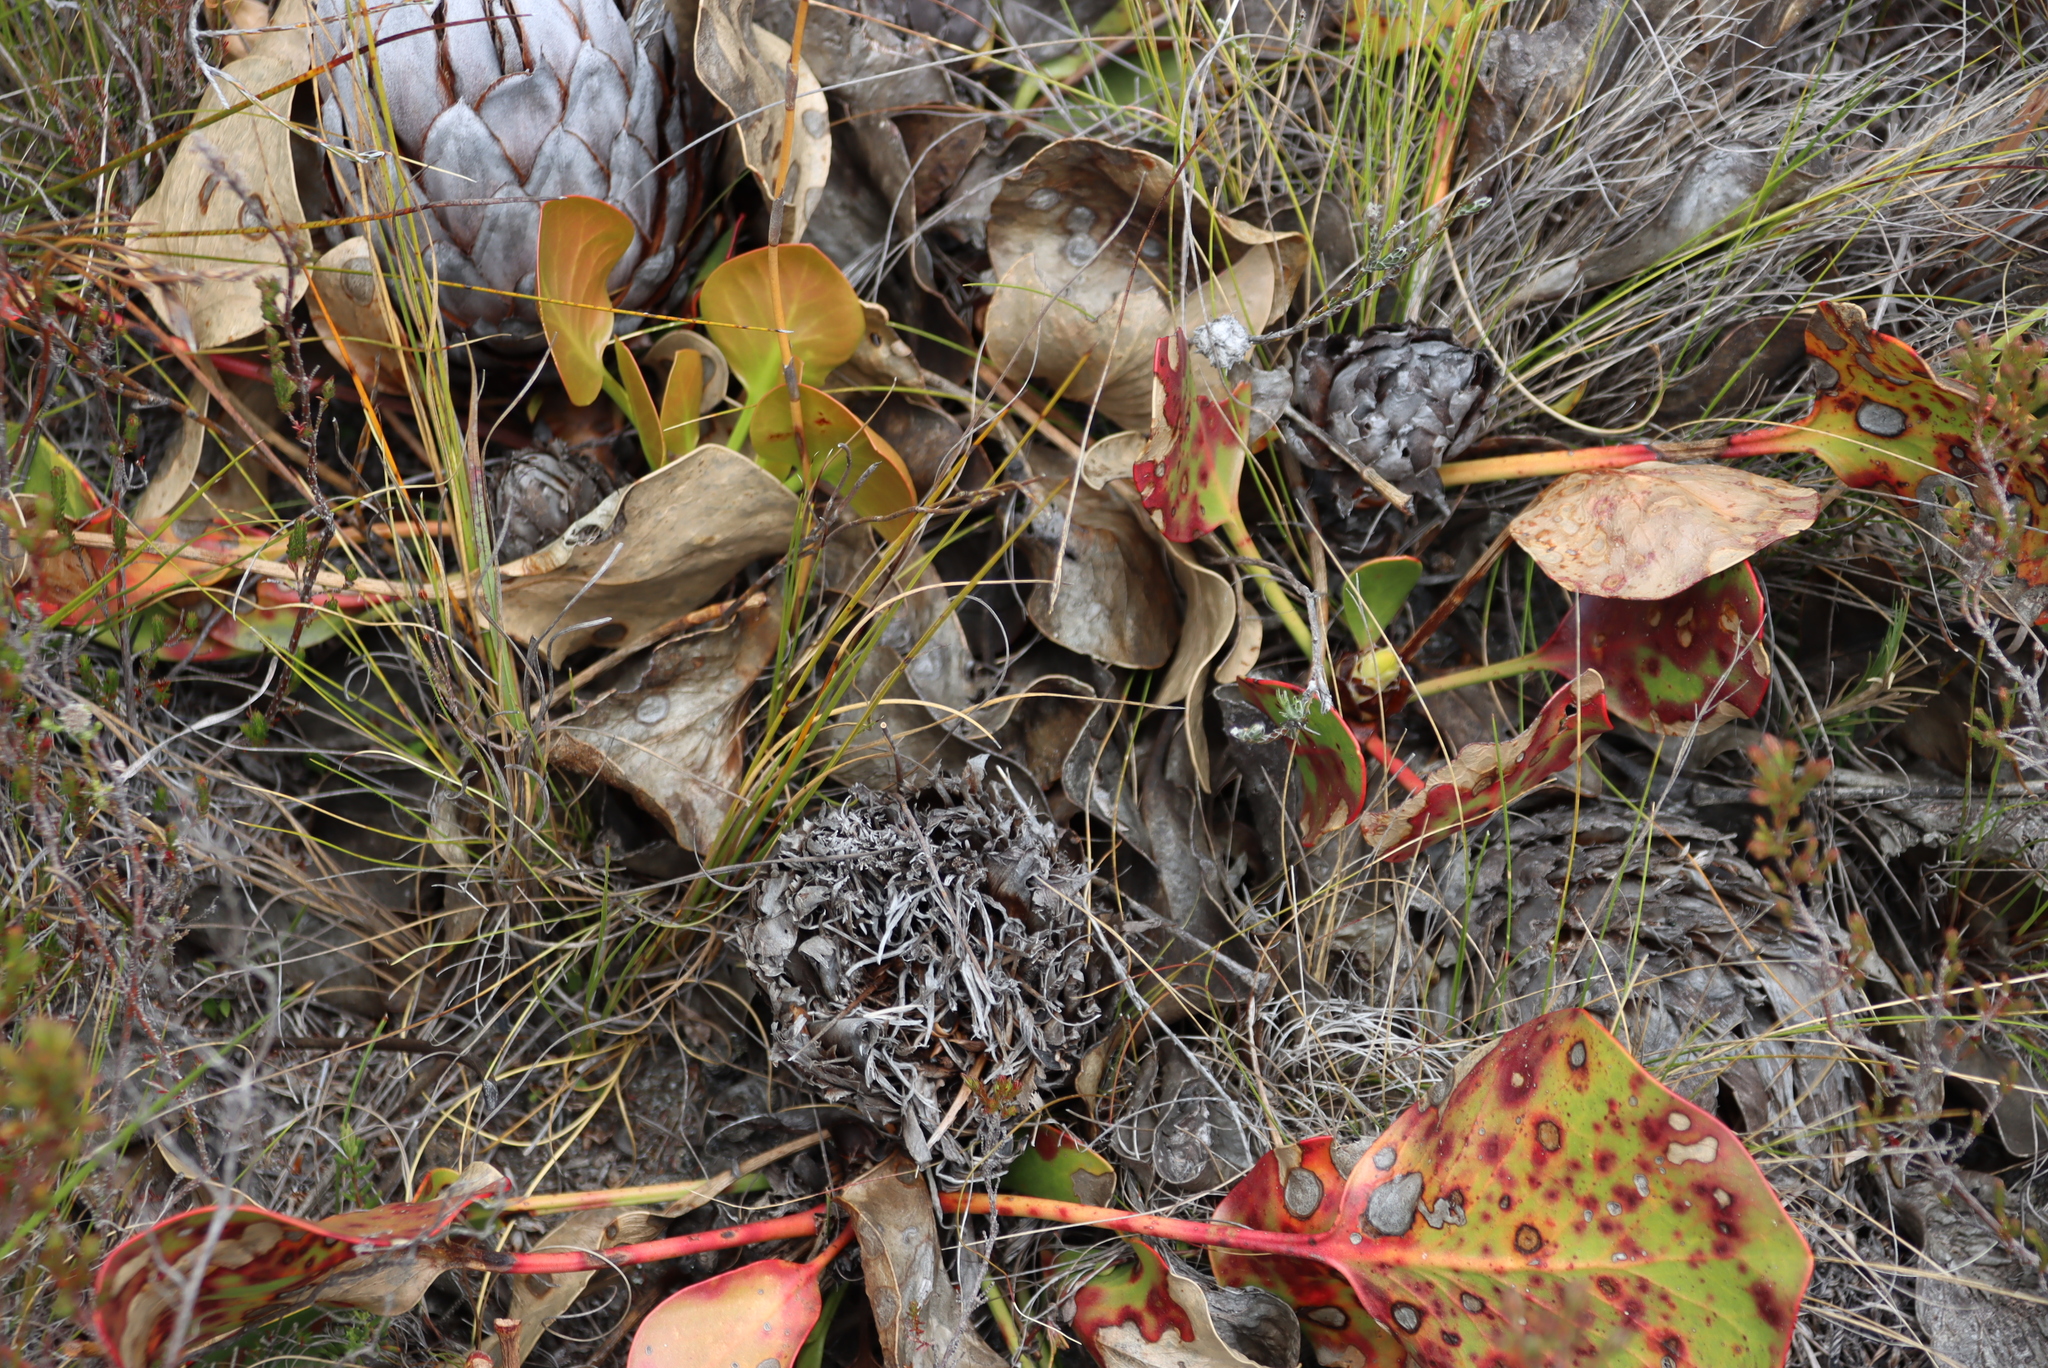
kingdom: Plantae
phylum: Tracheophyta
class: Magnoliopsida
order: Proteales
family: Proteaceae
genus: Protea
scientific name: Protea cynaroides
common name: King protea
